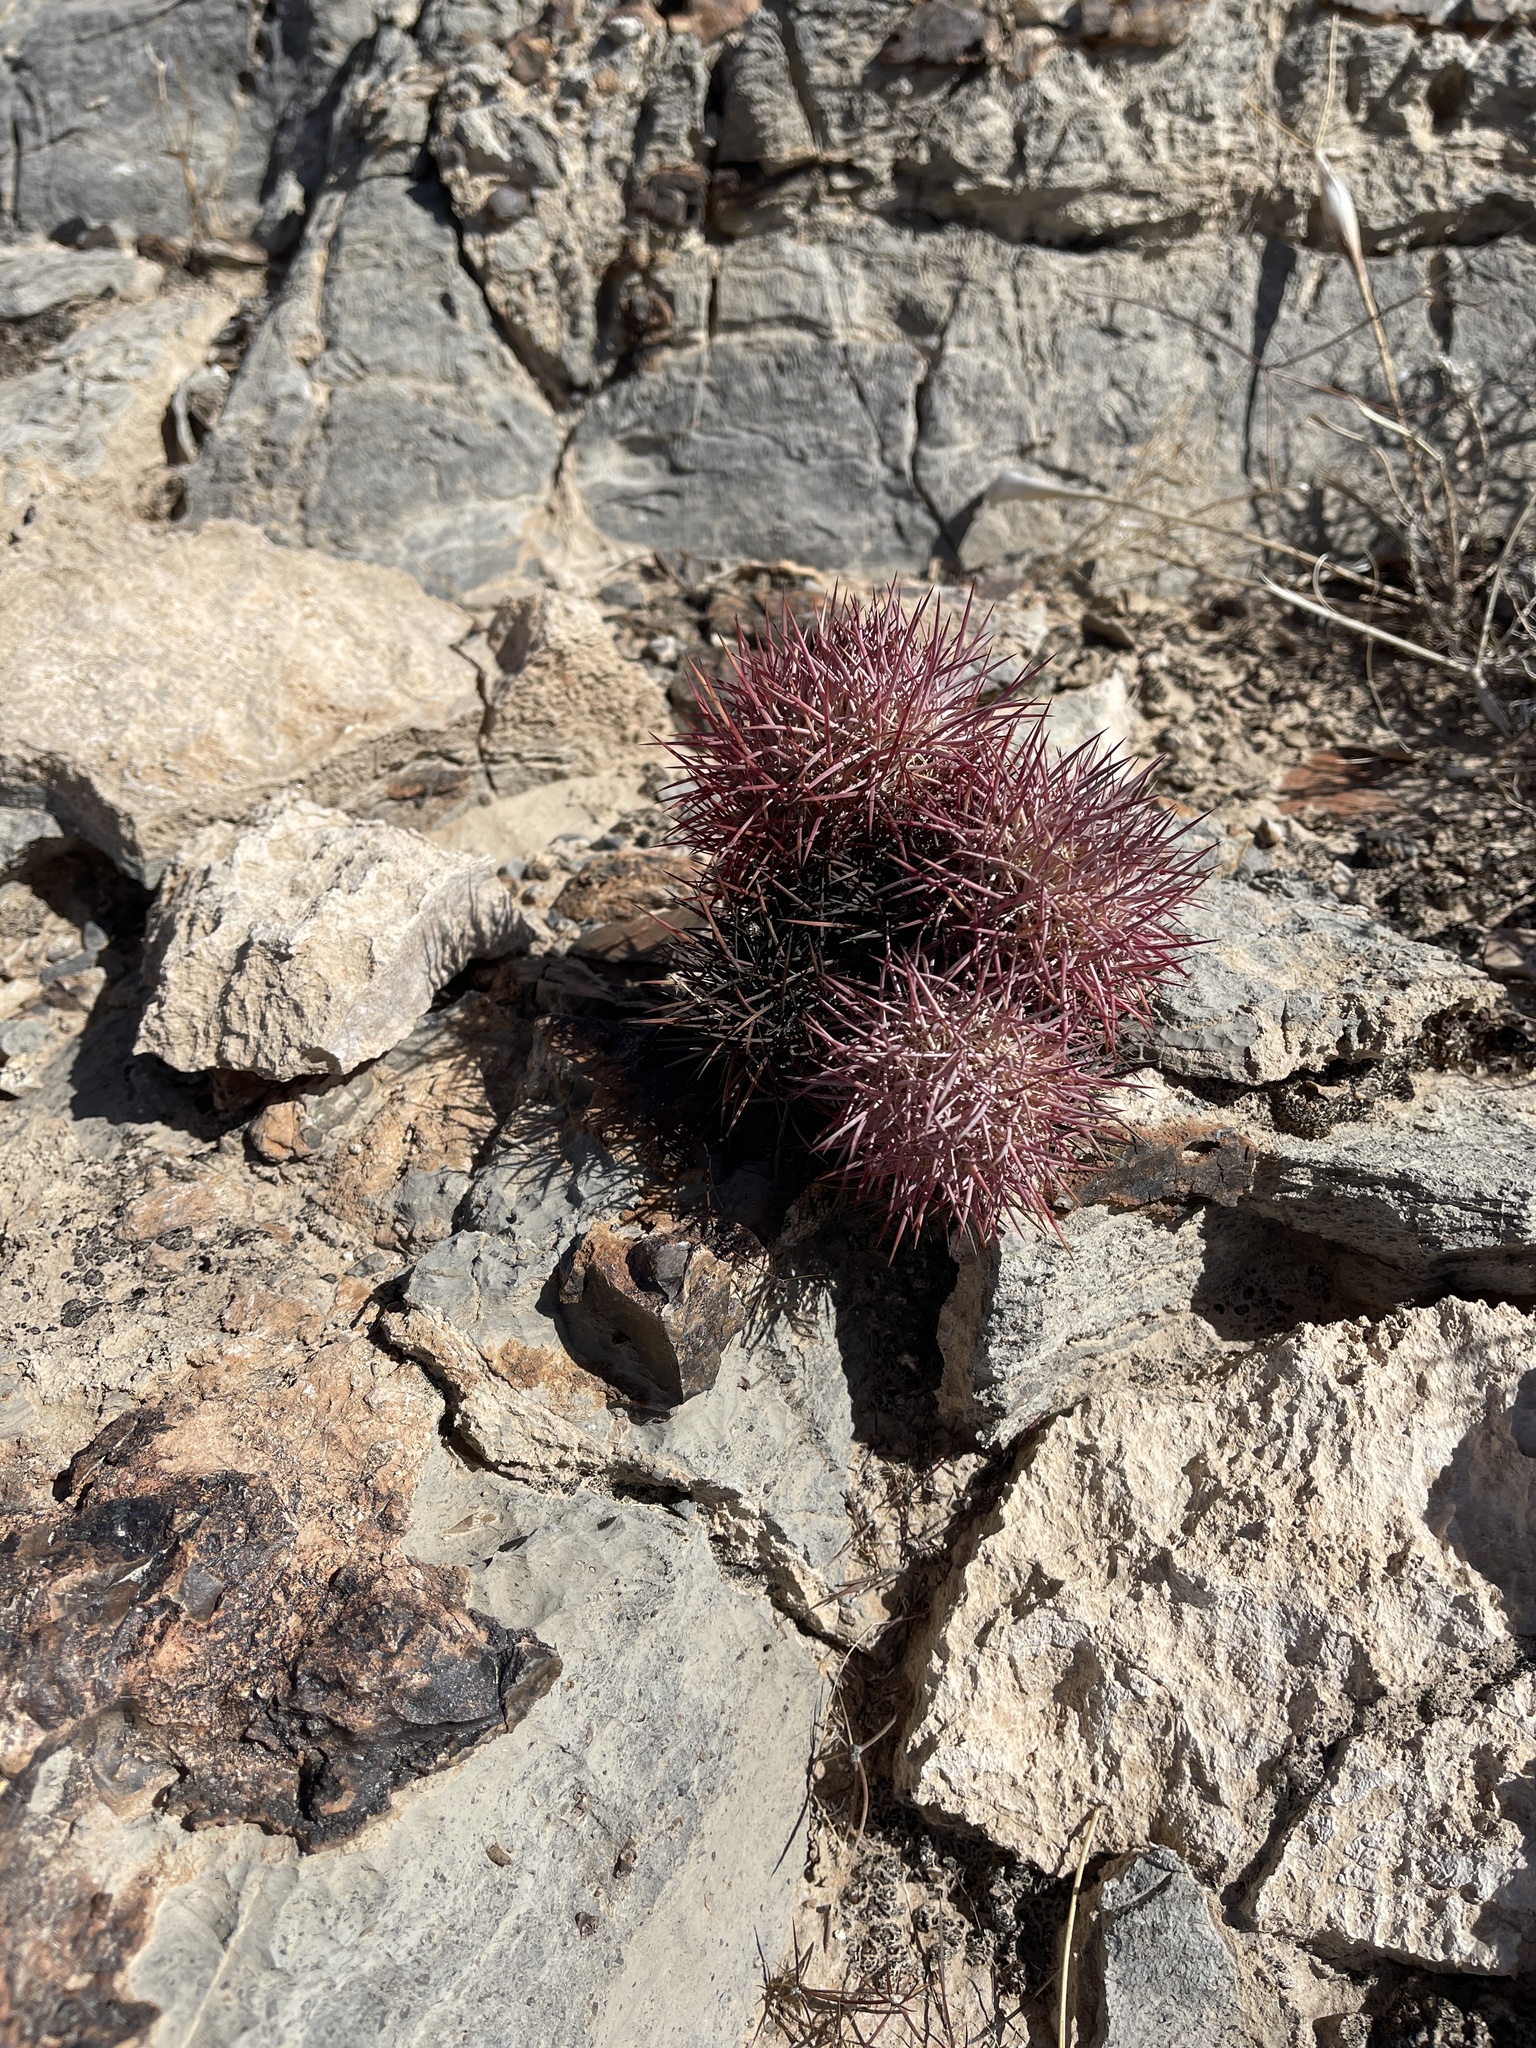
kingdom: Plantae
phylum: Tracheophyta
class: Magnoliopsida
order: Caryophyllales
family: Cactaceae
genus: Sclerocactus
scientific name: Sclerocactus johnsonii
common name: Eight-spine fishhook cactus
